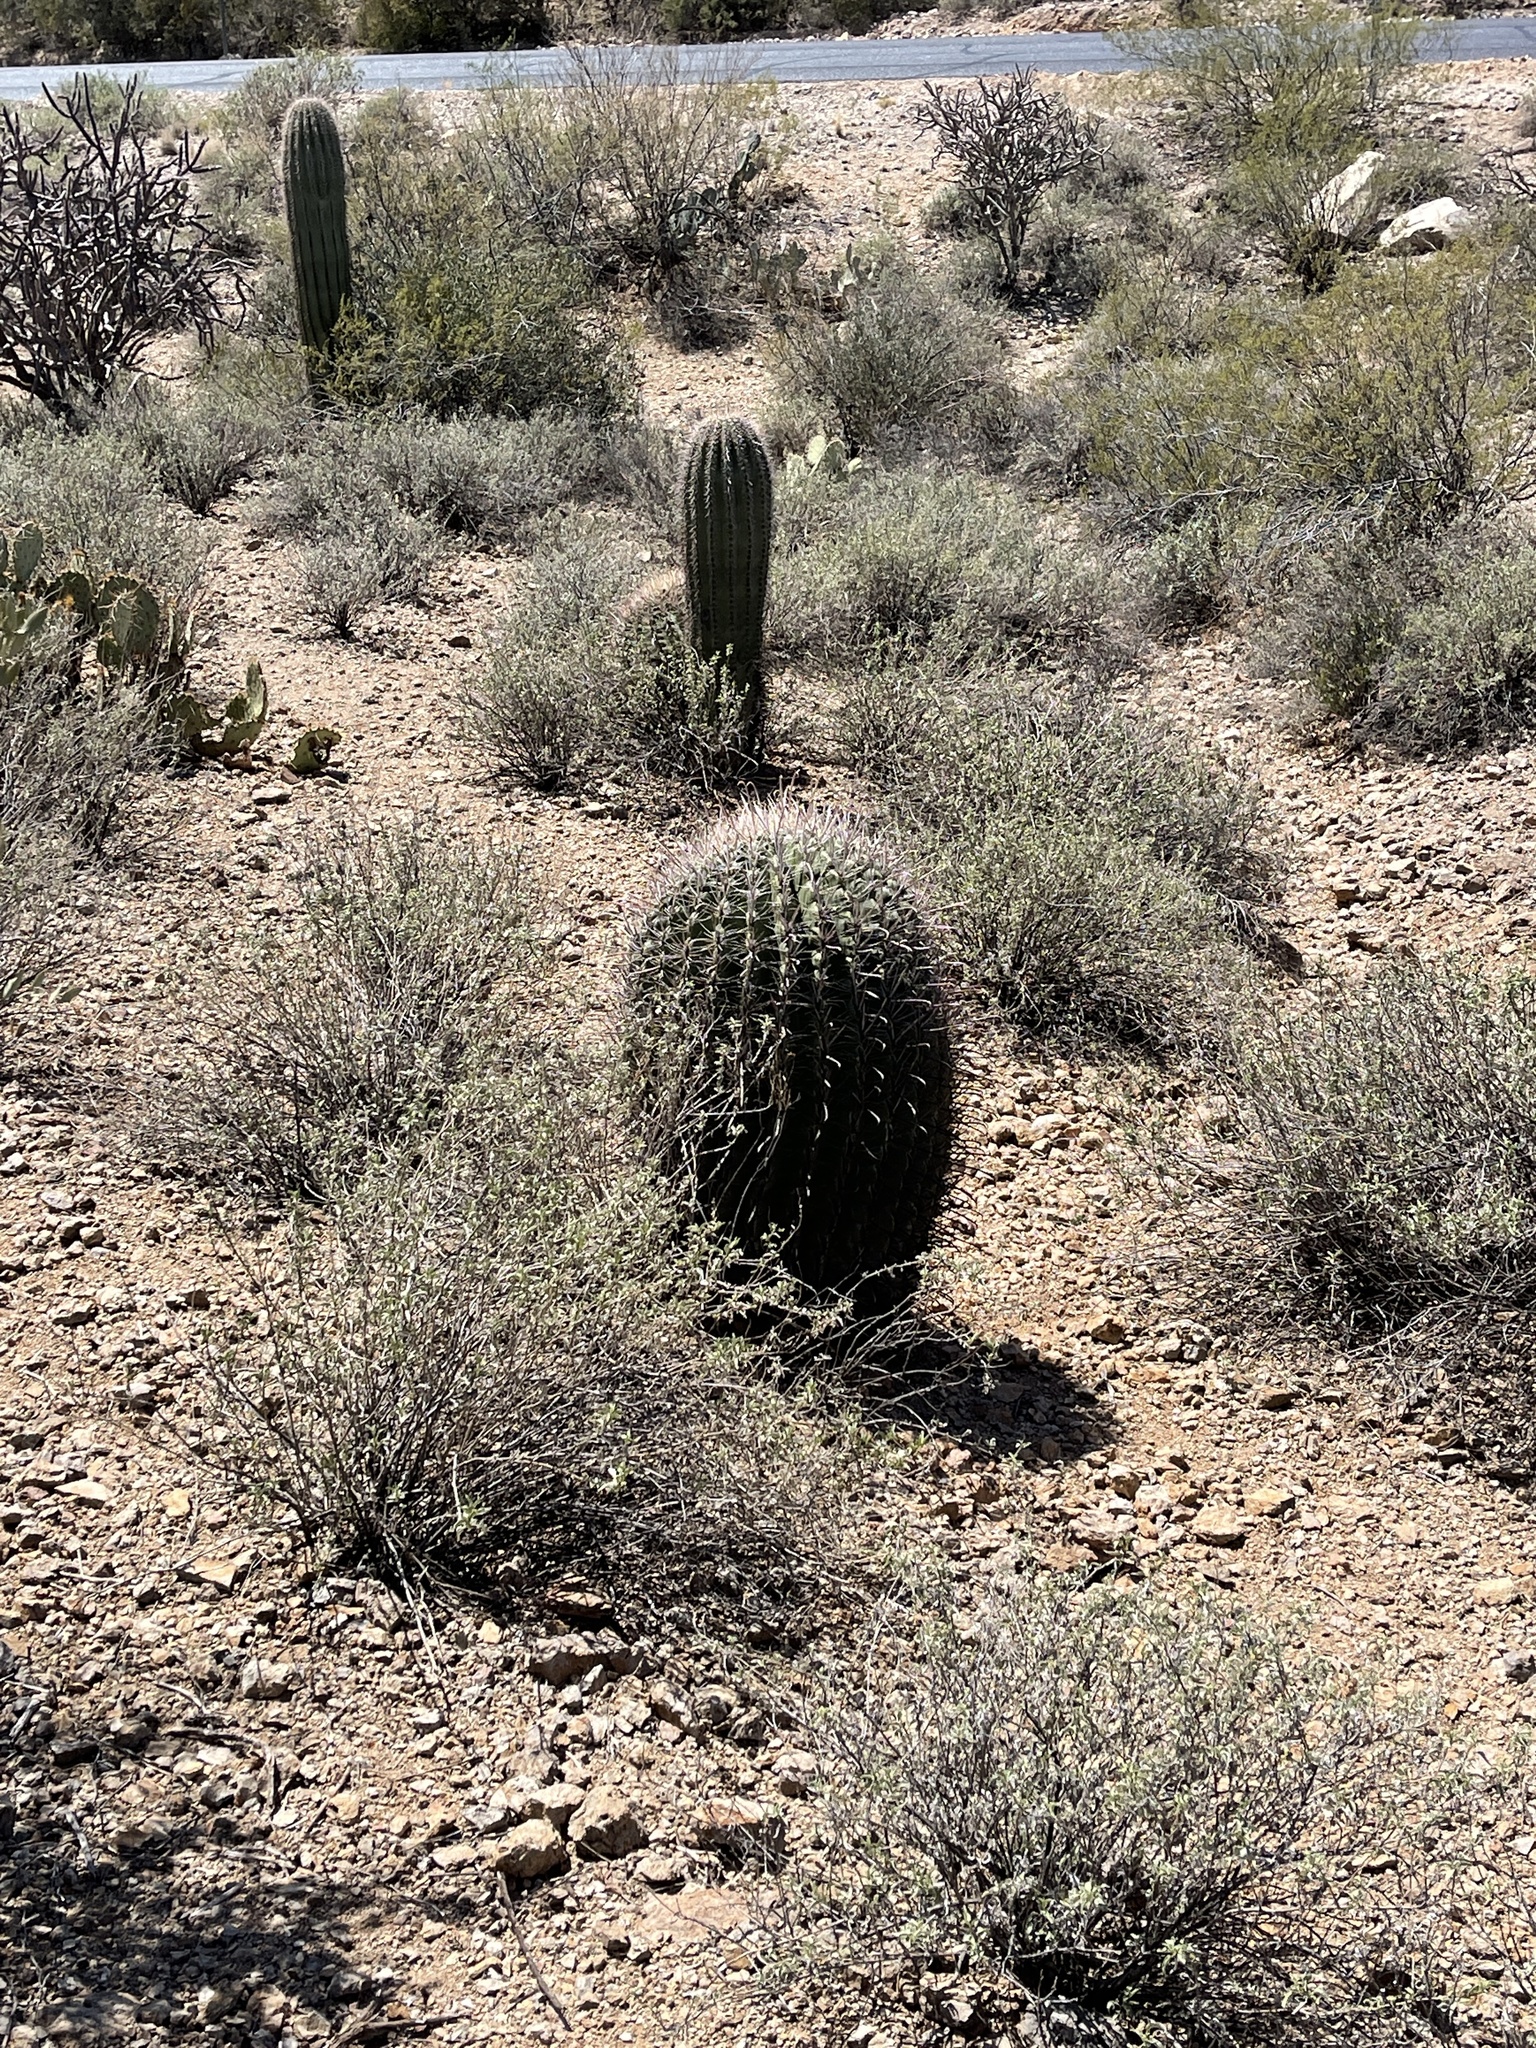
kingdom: Plantae
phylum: Tracheophyta
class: Magnoliopsida
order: Caryophyllales
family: Cactaceae
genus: Ferocactus
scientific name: Ferocactus wislizeni
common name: Candy barrel cactus
